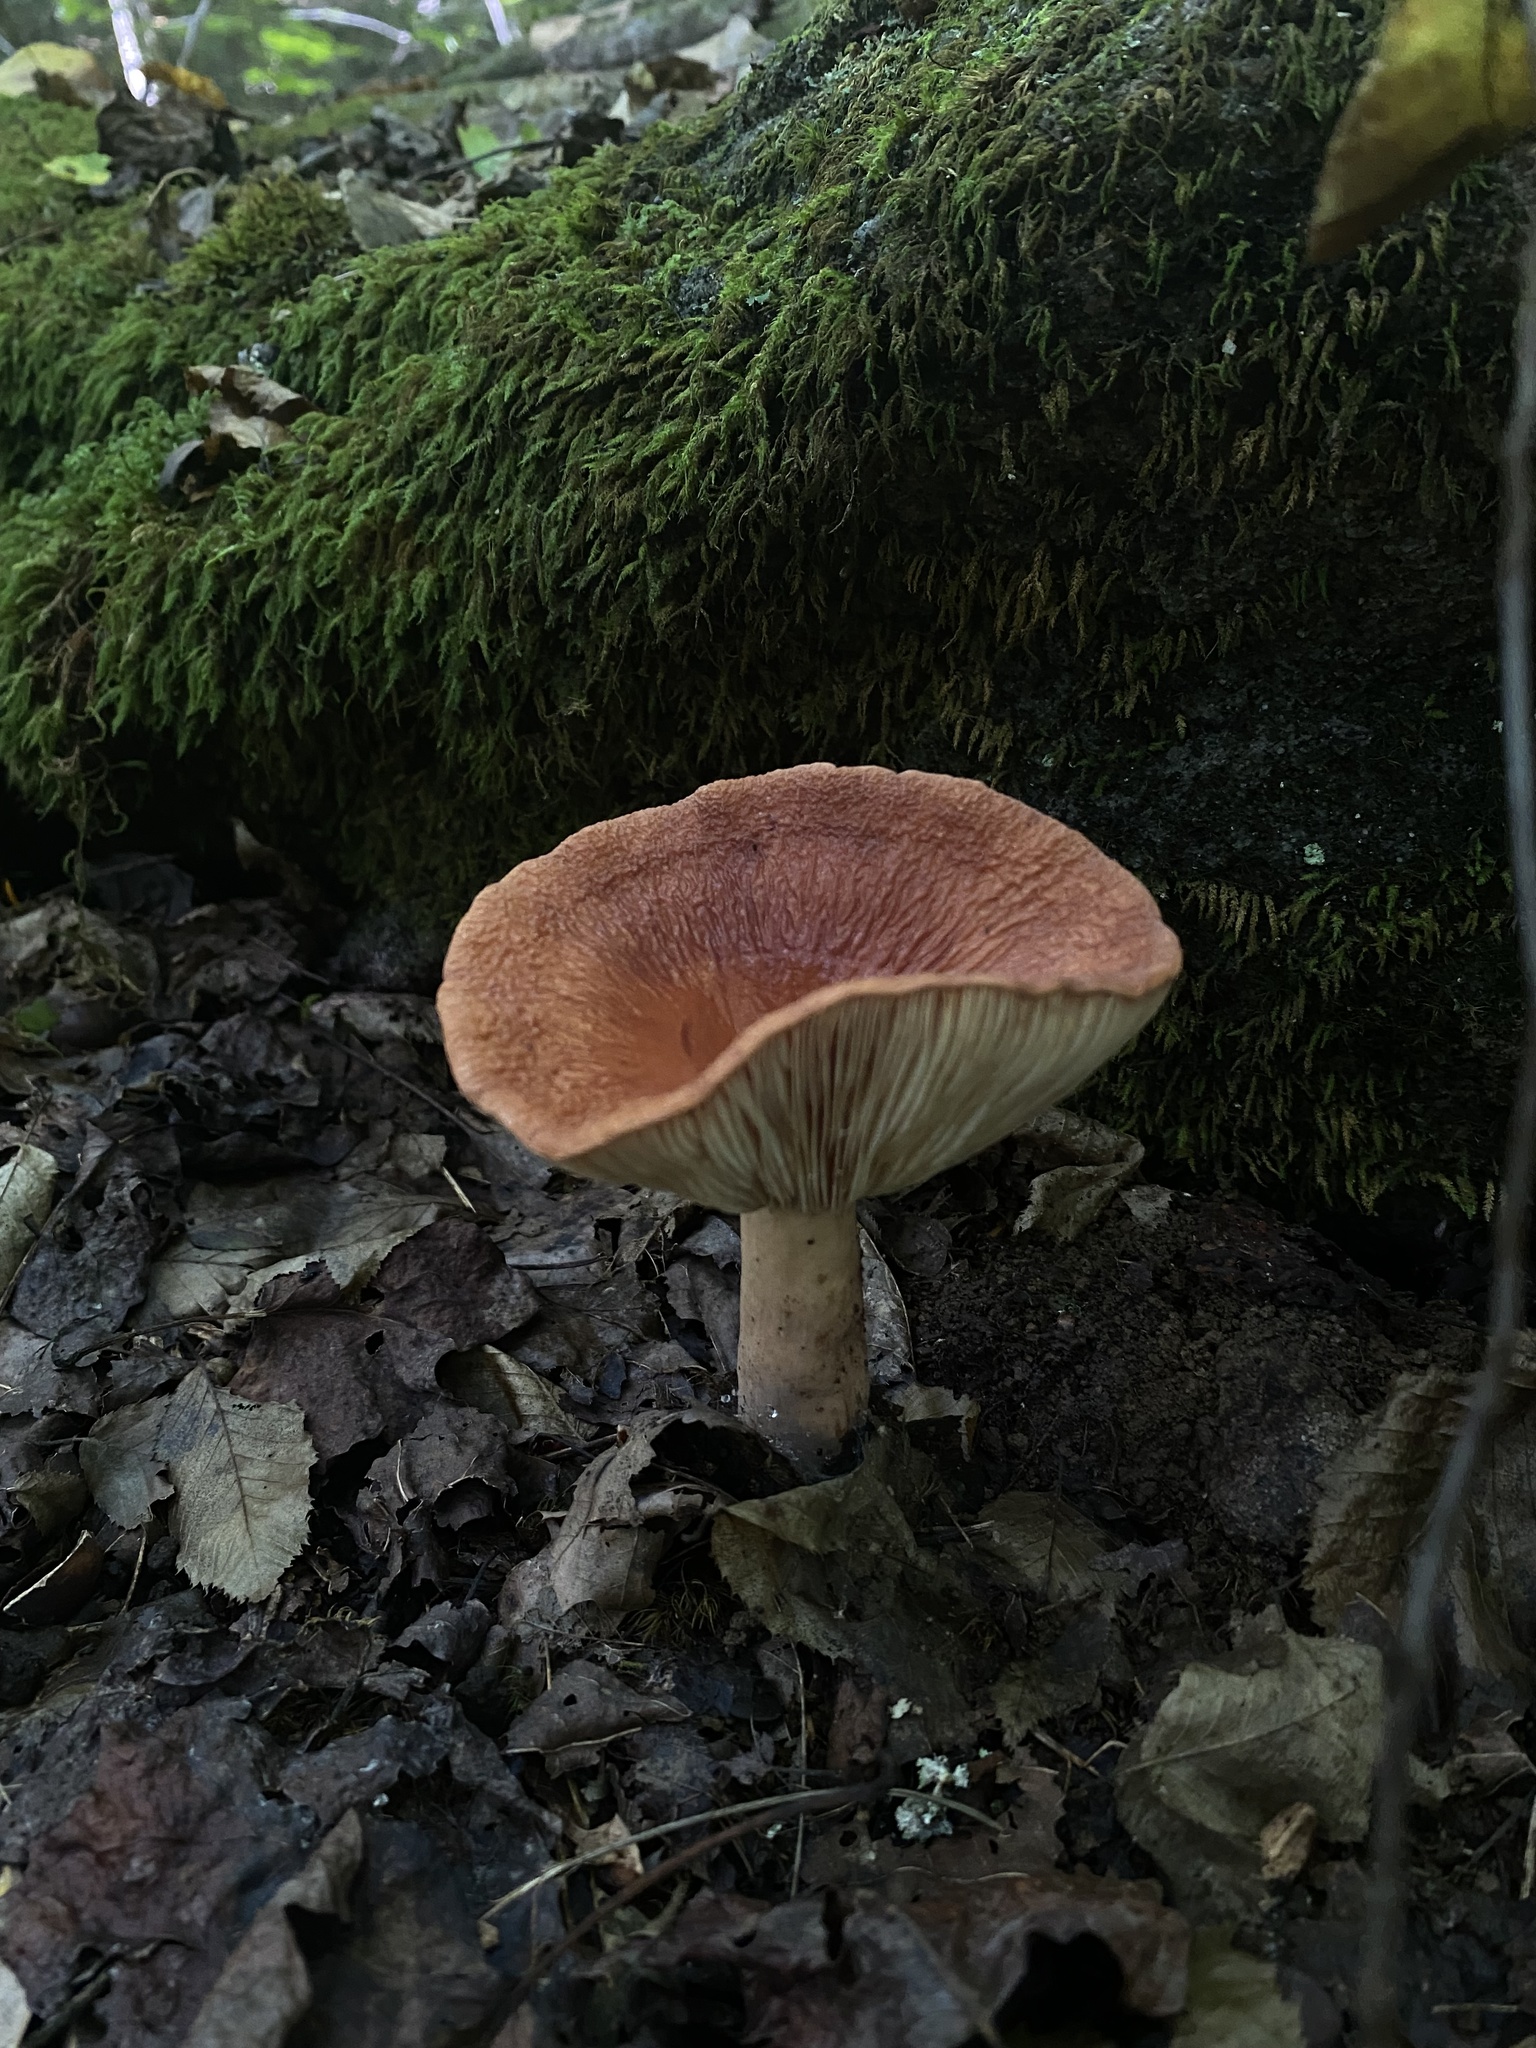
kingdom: Fungi
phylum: Basidiomycota
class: Agaricomycetes
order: Russulales
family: Russulaceae
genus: Lactarius
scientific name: Lactarius corrugis
